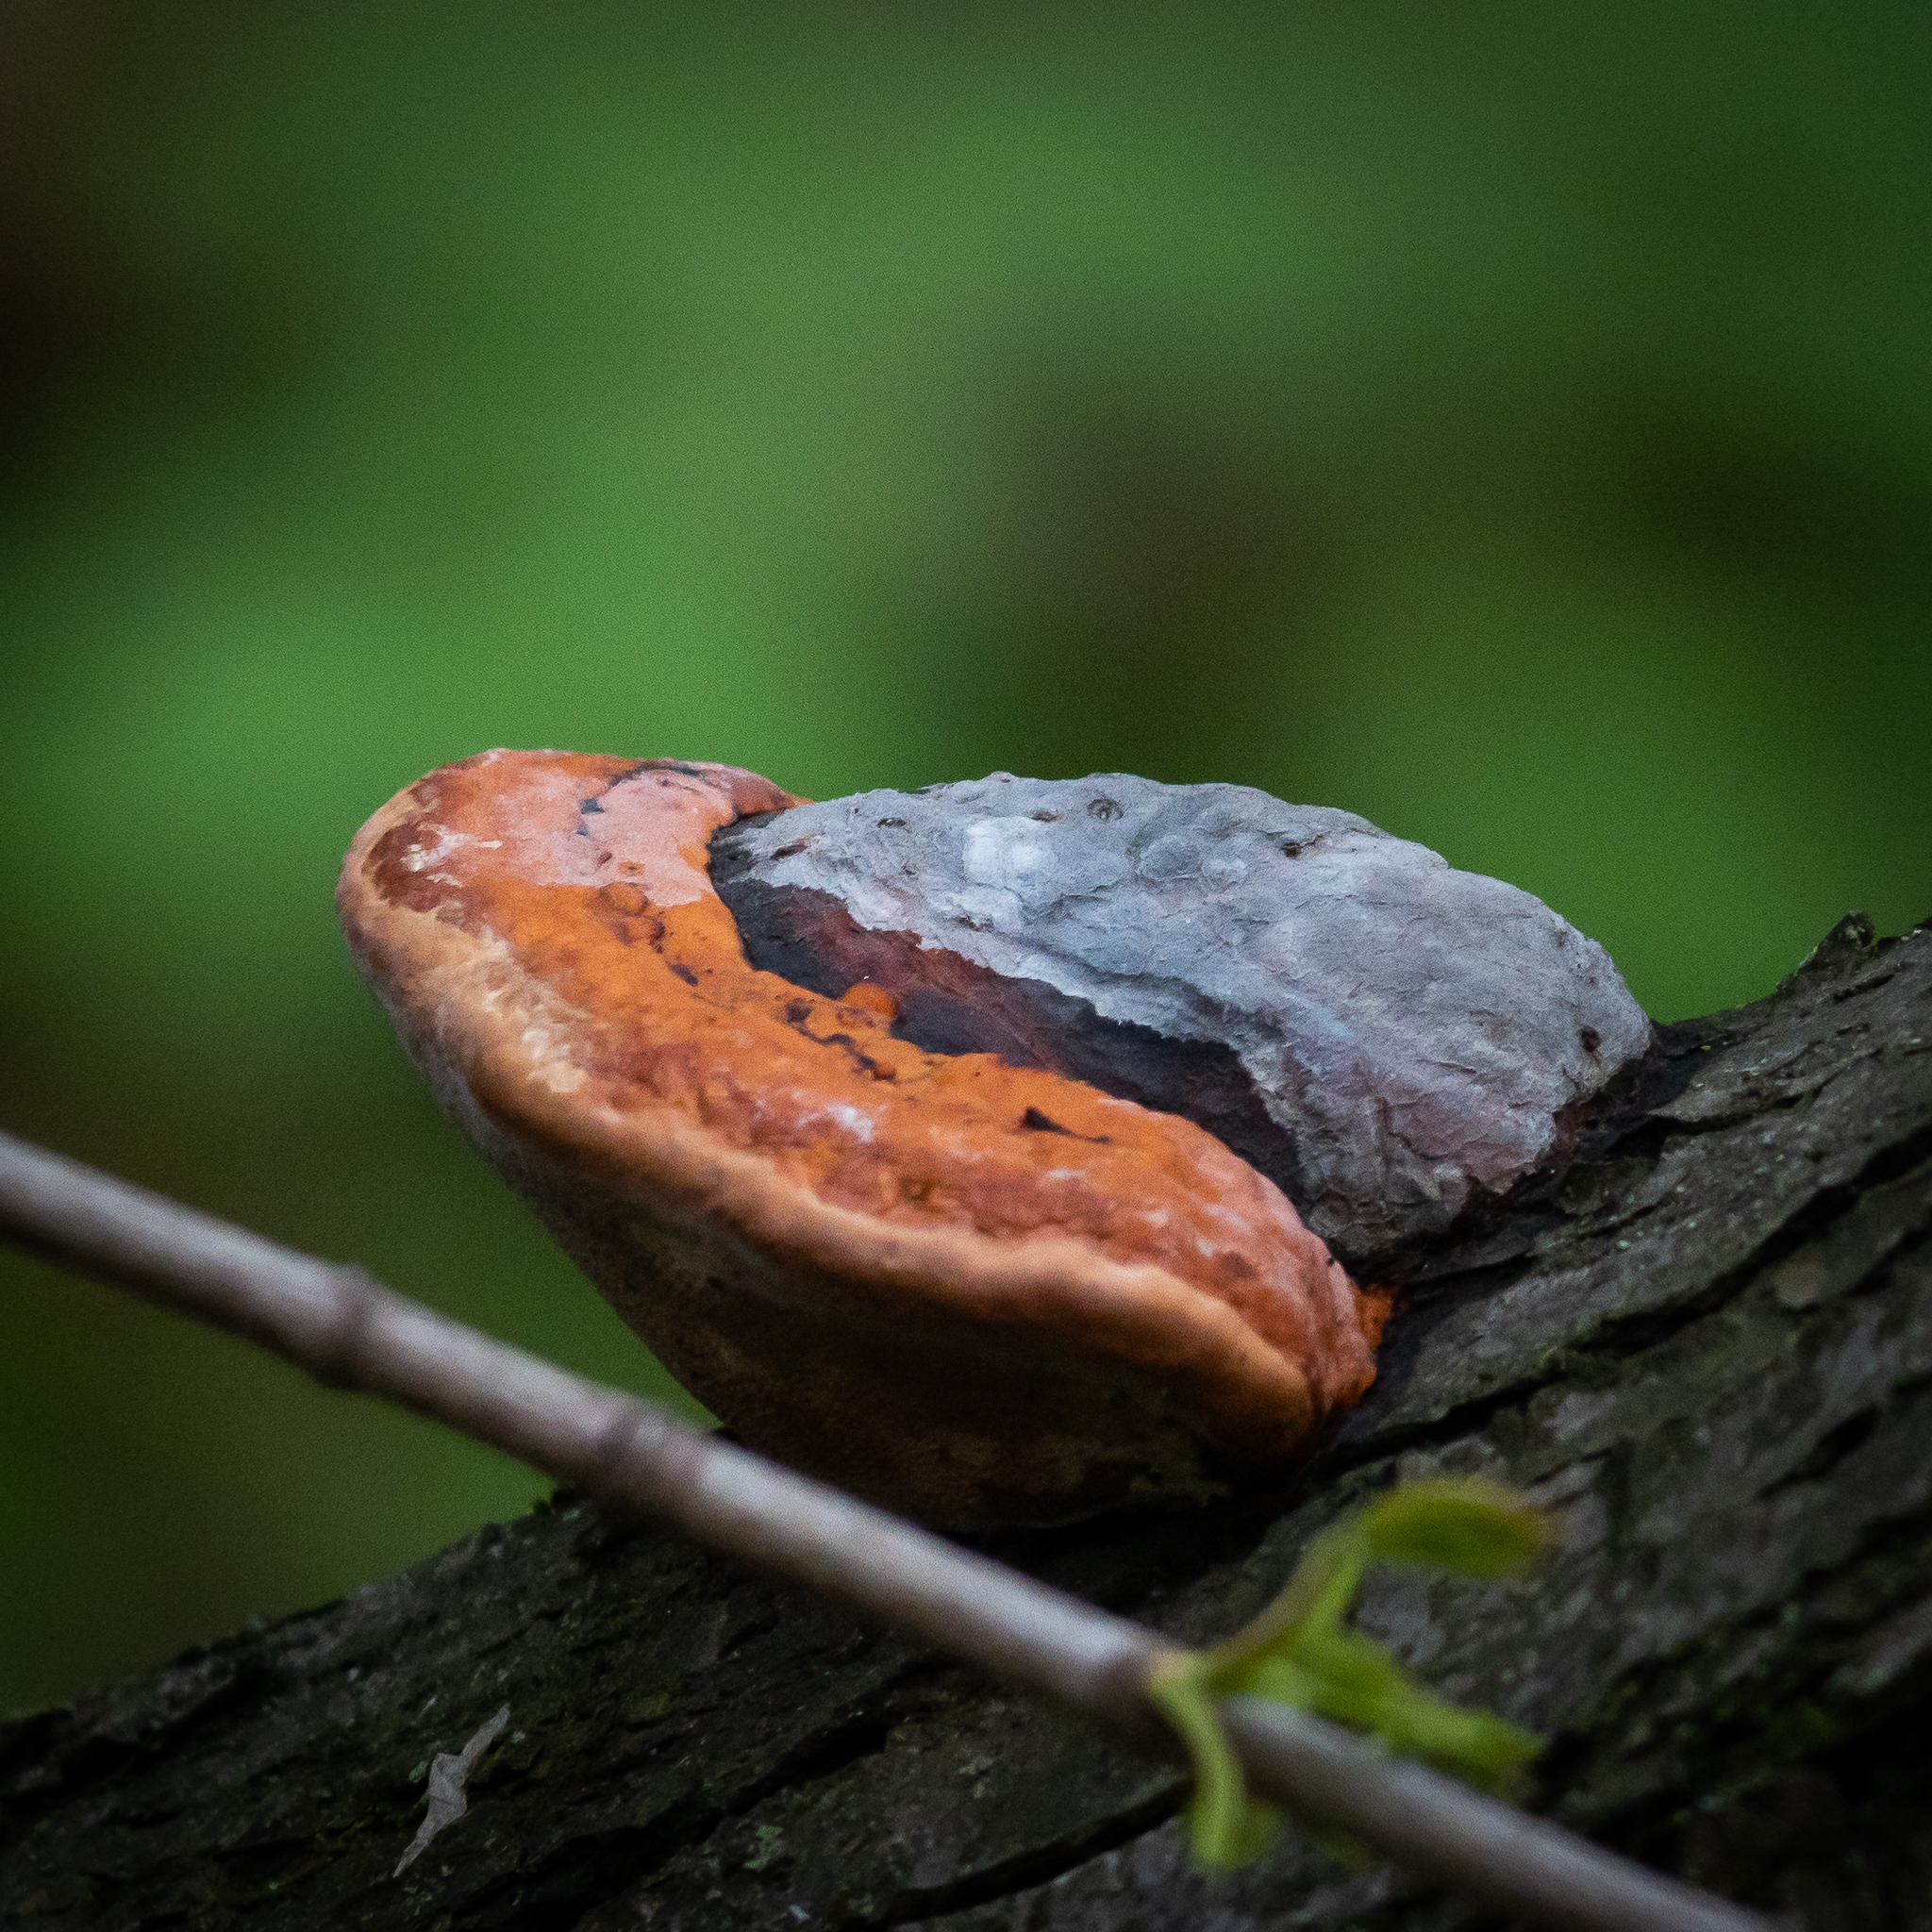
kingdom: Fungi
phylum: Basidiomycota
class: Agaricomycetes
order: Polyporales
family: Fomitopsidaceae
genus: Fomitopsis
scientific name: Fomitopsis pinicola
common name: Red-belted bracket
